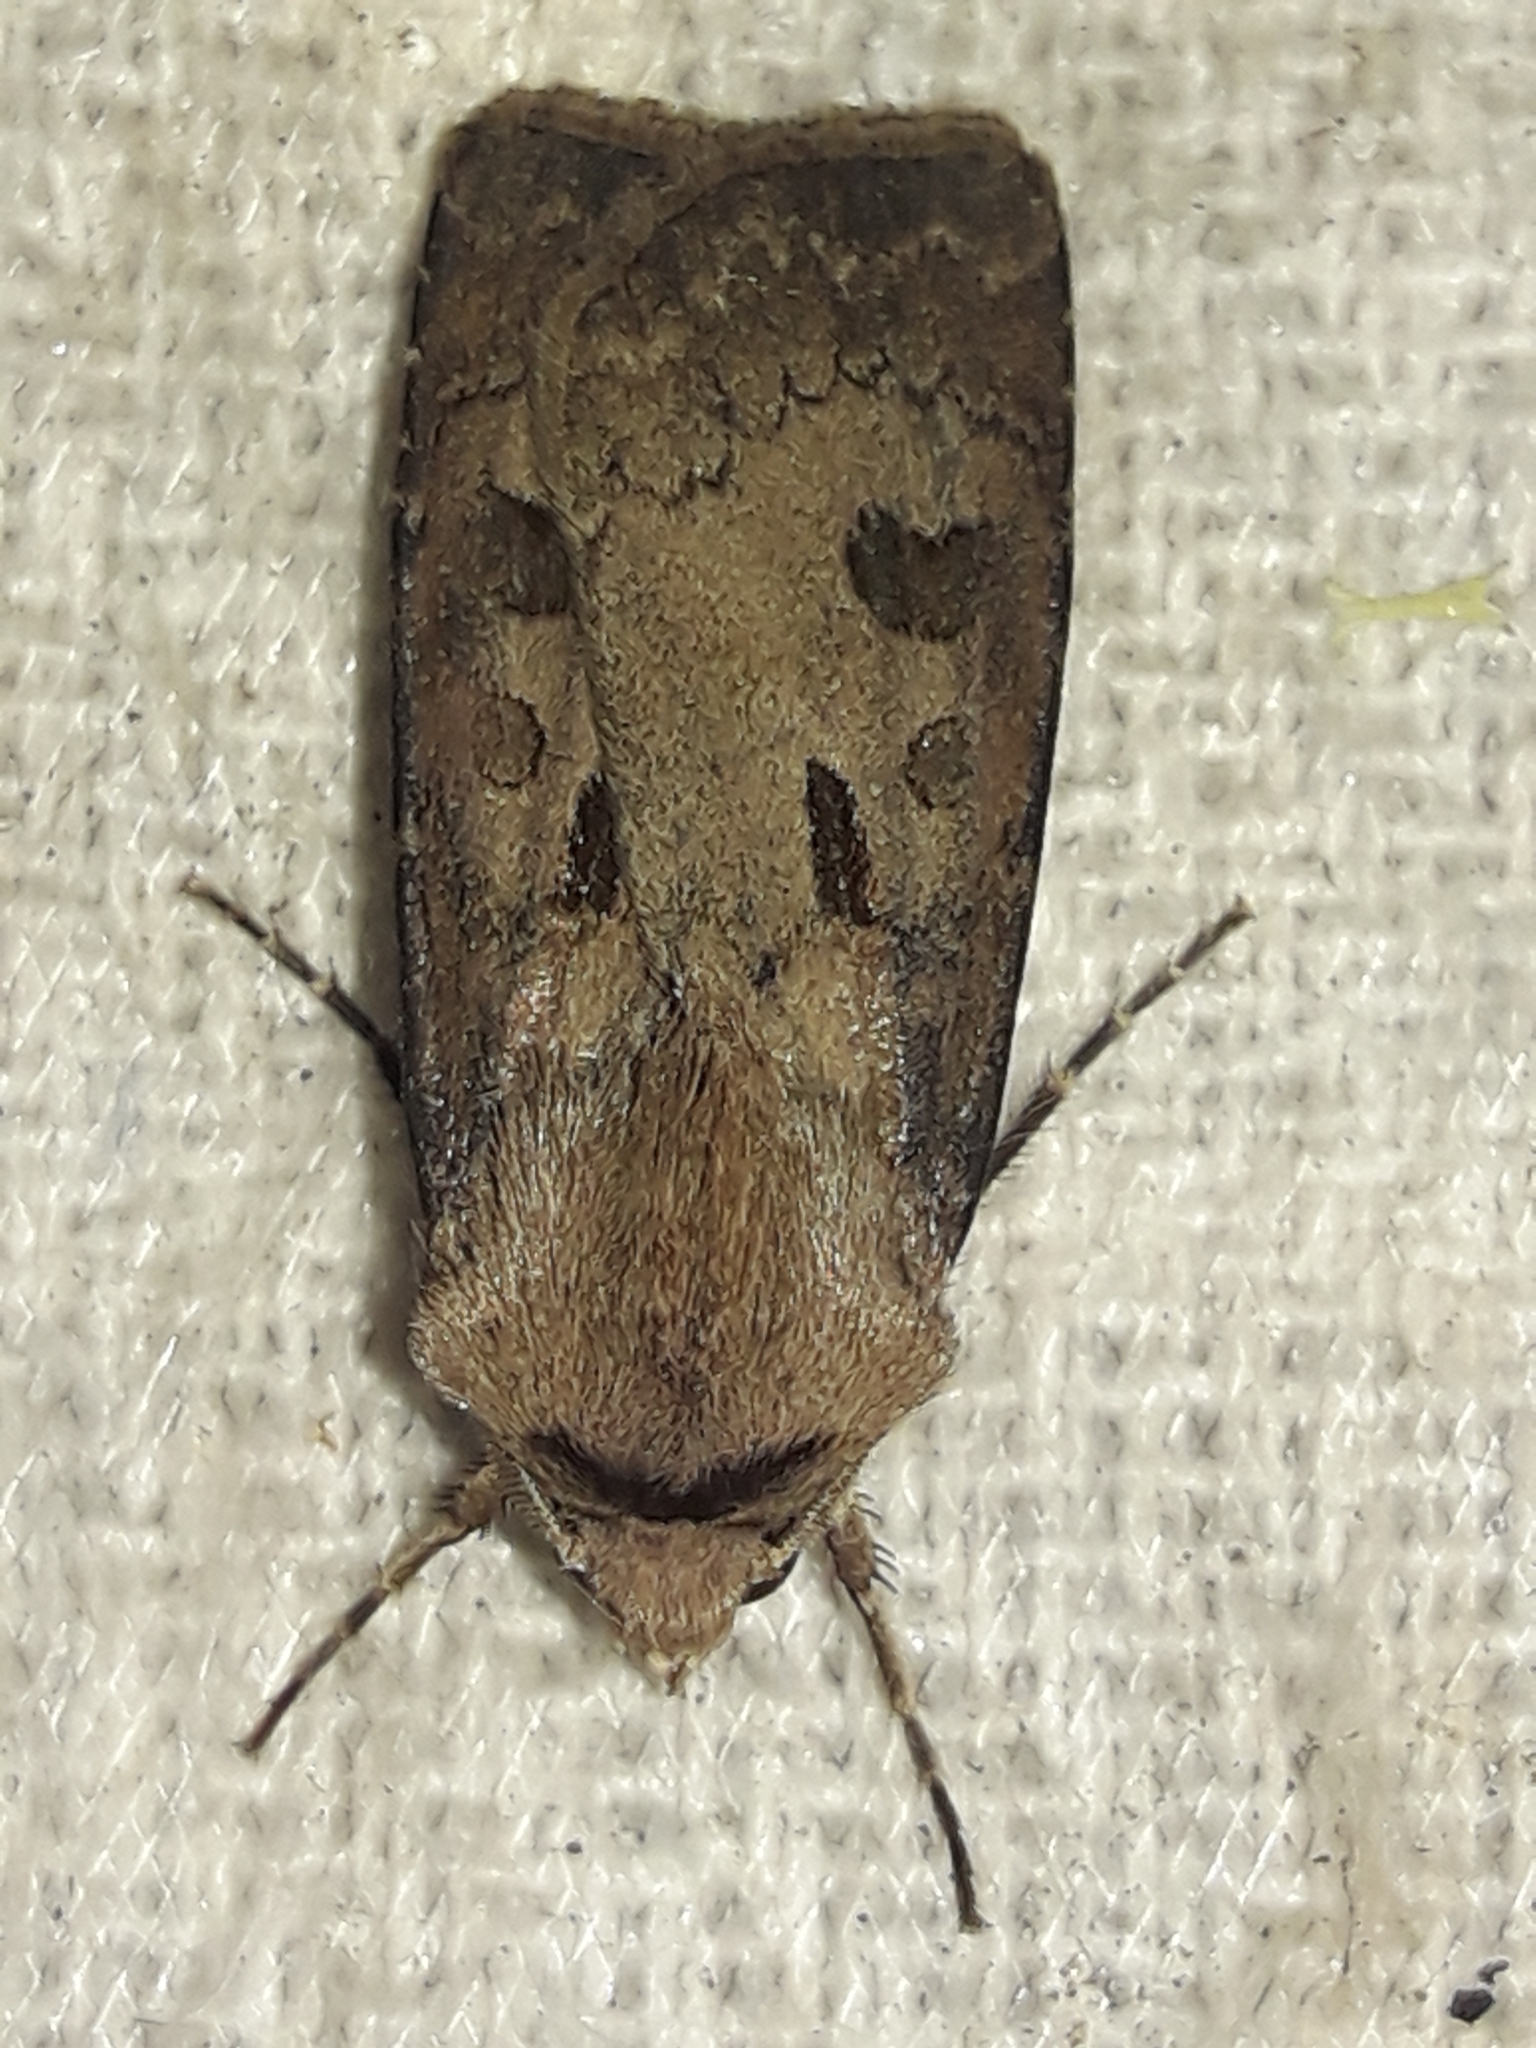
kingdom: Animalia
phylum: Arthropoda
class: Insecta
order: Lepidoptera
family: Noctuidae
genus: Agrotis
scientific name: Agrotis exclamationis
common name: Heart and dart
